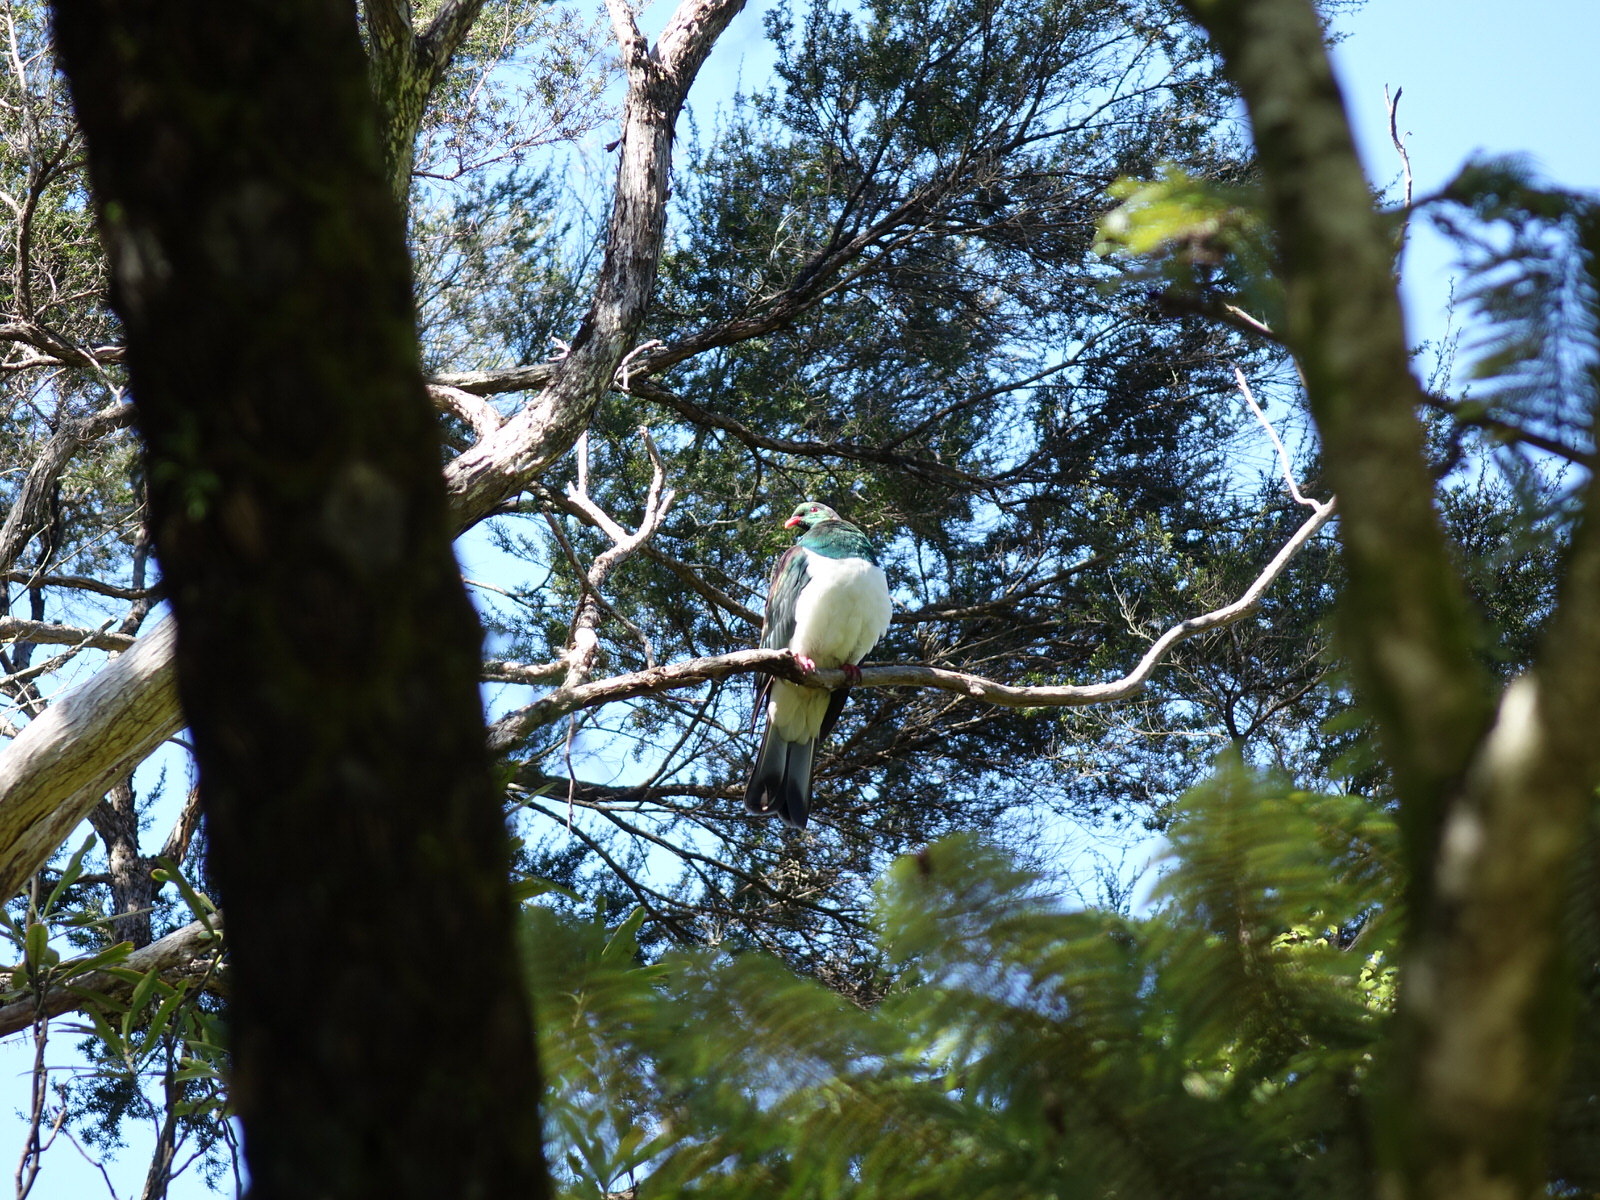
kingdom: Animalia
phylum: Chordata
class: Aves
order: Columbiformes
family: Columbidae
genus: Hemiphaga
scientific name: Hemiphaga novaeseelandiae
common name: New zealand pigeon
